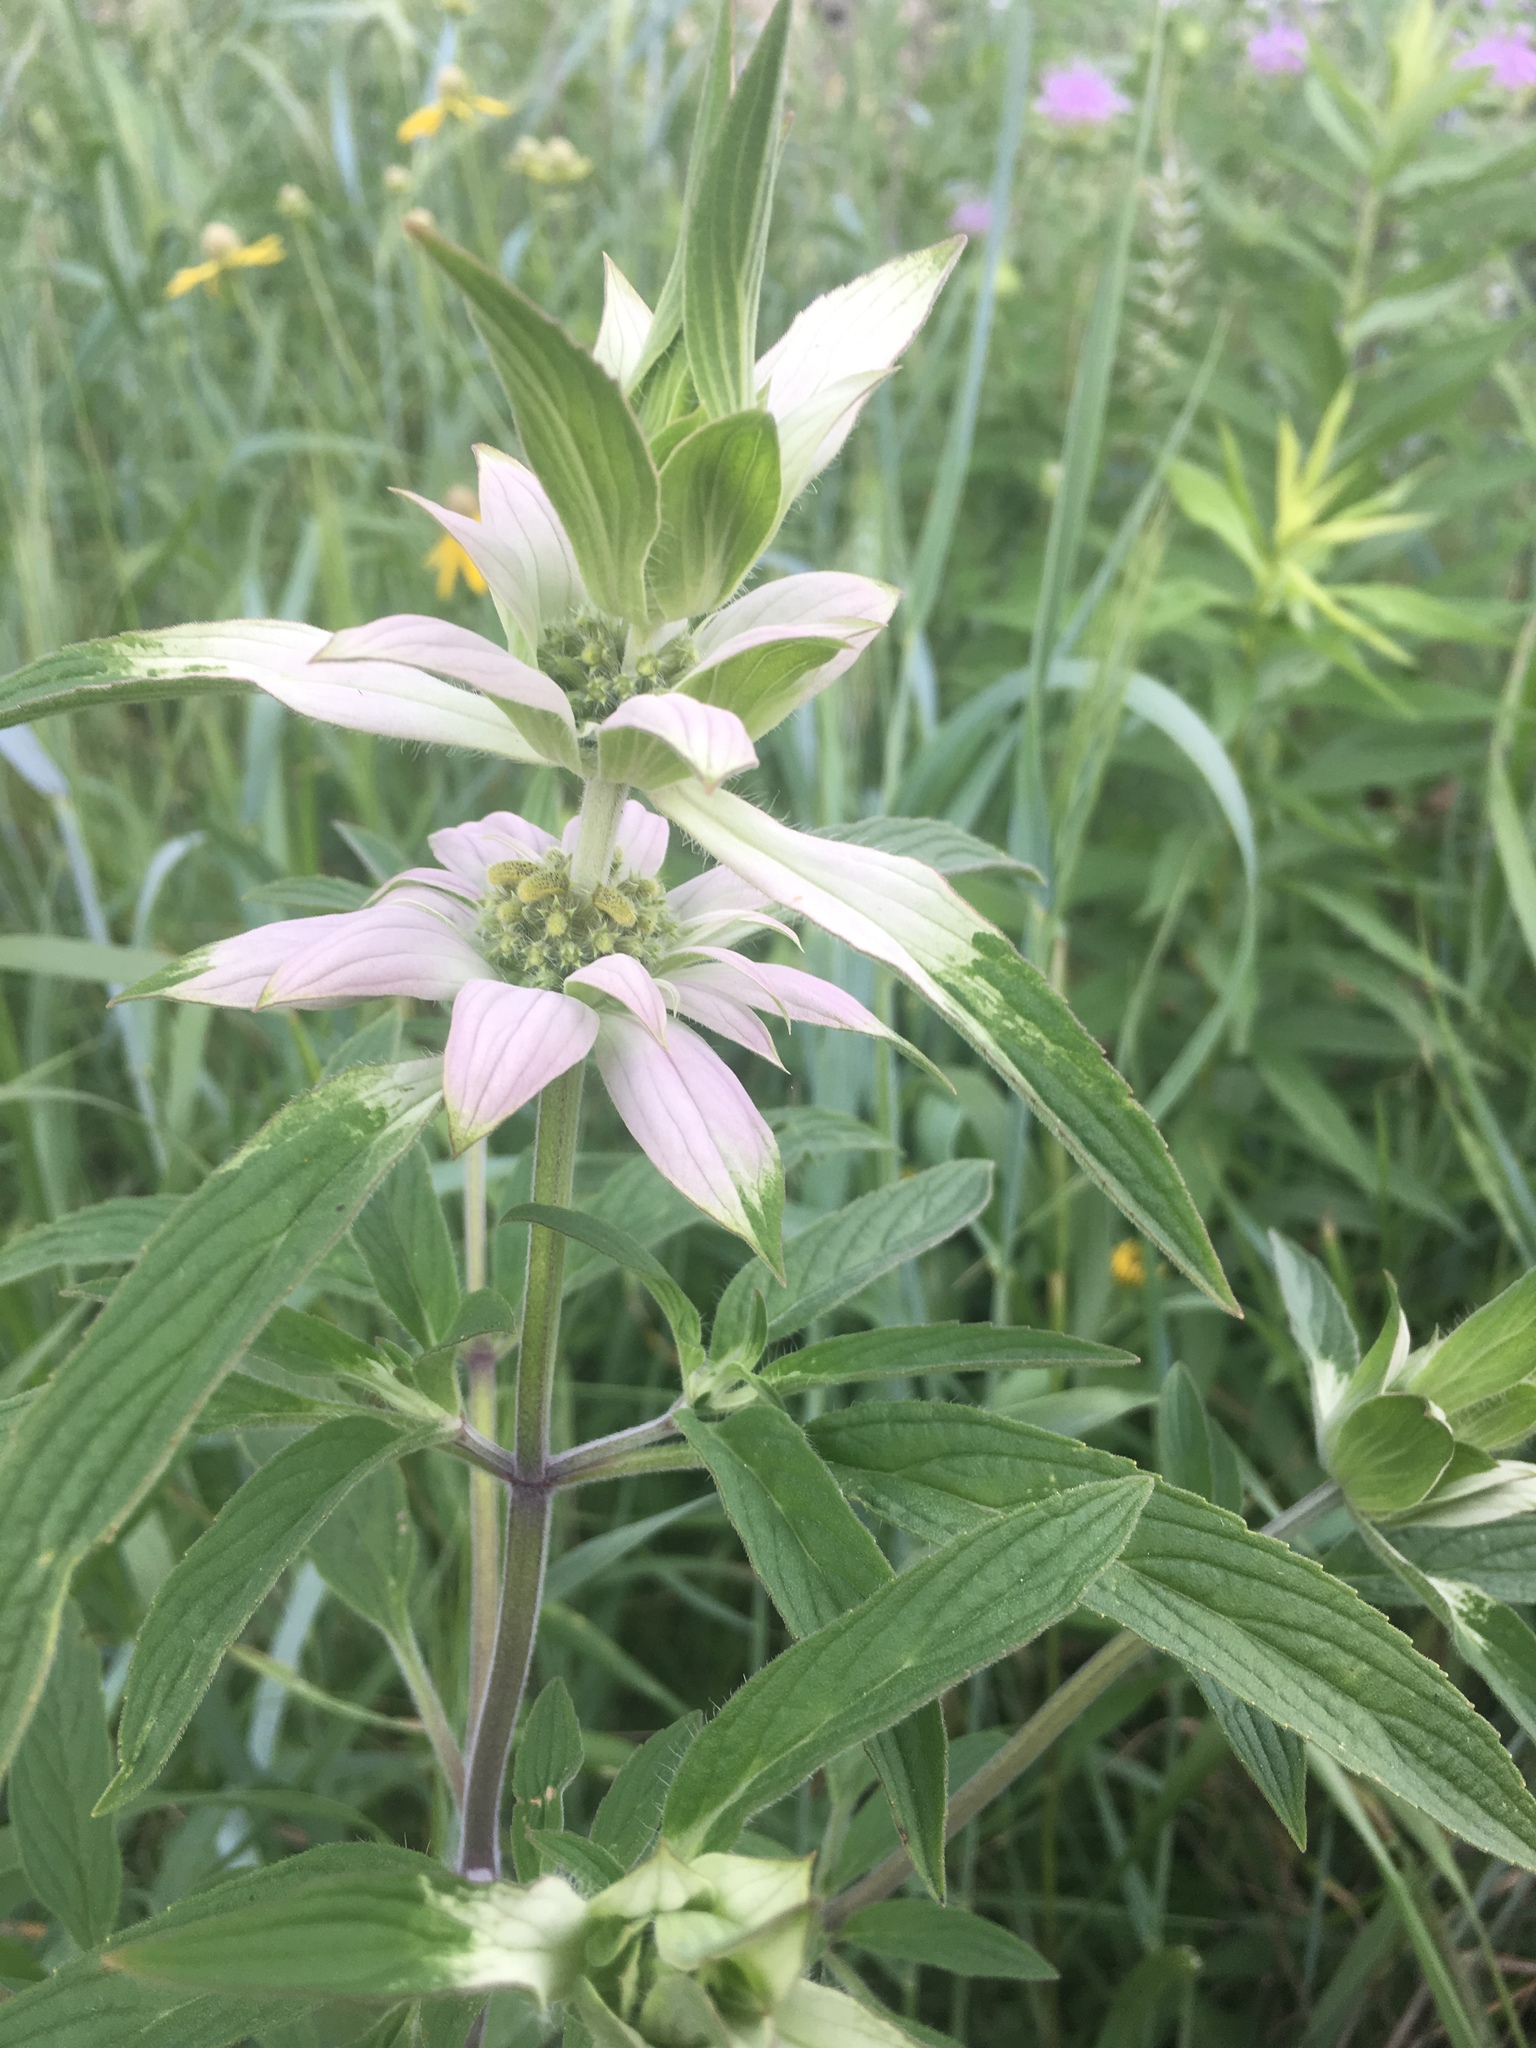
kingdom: Plantae
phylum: Tracheophyta
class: Magnoliopsida
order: Lamiales
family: Lamiaceae
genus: Monarda
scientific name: Monarda punctata
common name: Dotted monarda
